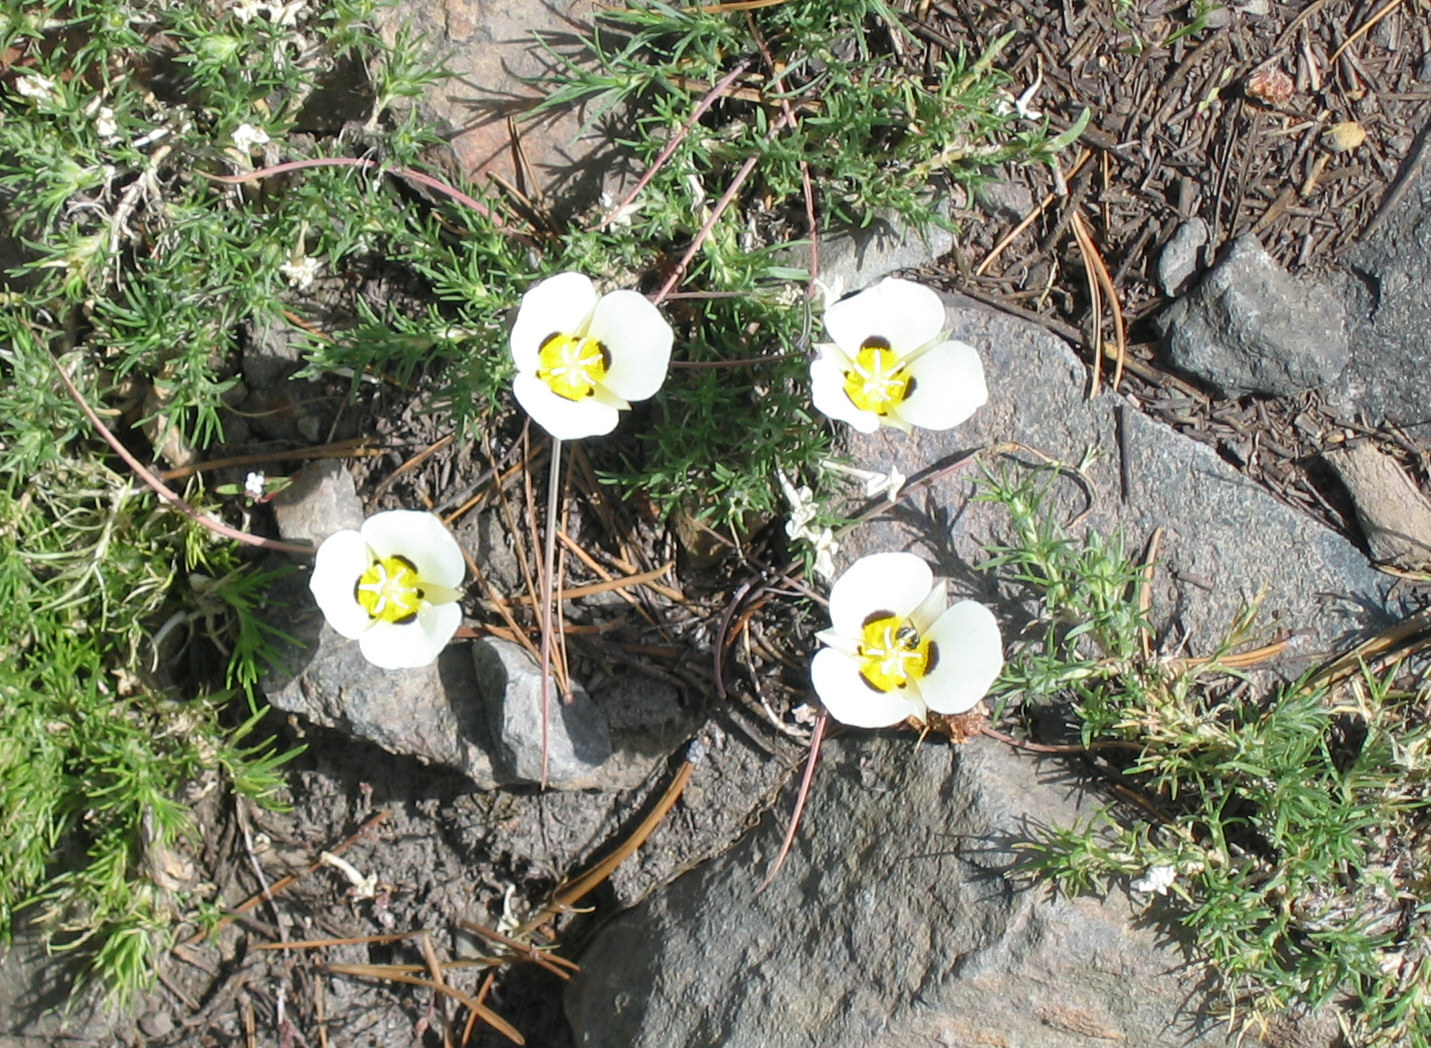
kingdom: Plantae
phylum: Tracheophyta
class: Liliopsida
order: Liliales
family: Liliaceae
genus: Calochortus
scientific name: Calochortus leichtlinii
